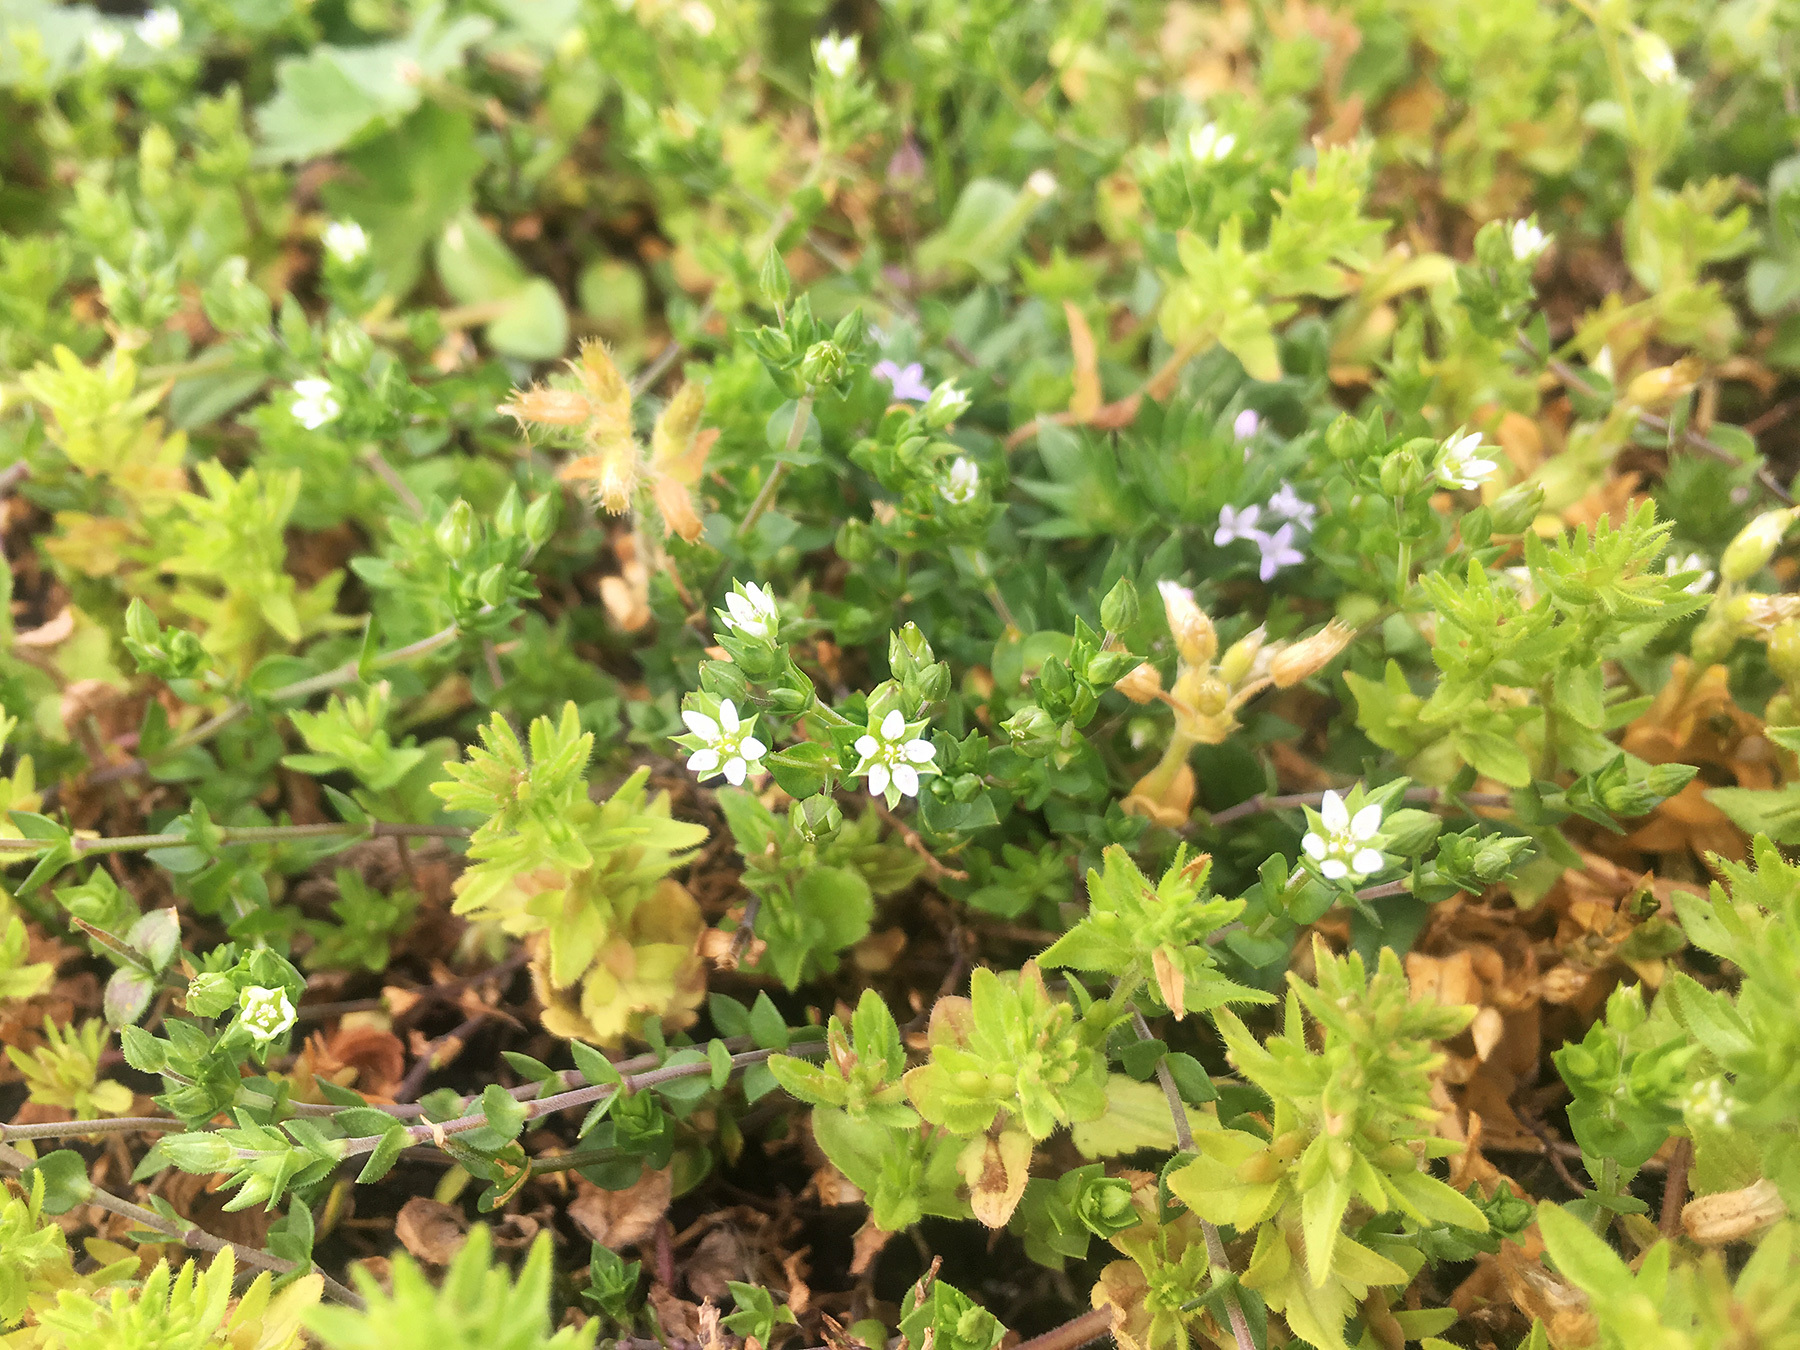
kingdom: Plantae
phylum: Tracheophyta
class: Magnoliopsida
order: Caryophyllales
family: Caryophyllaceae
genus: Arenaria
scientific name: Arenaria serpyllifolia
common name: Thyme-leaved sandwort
